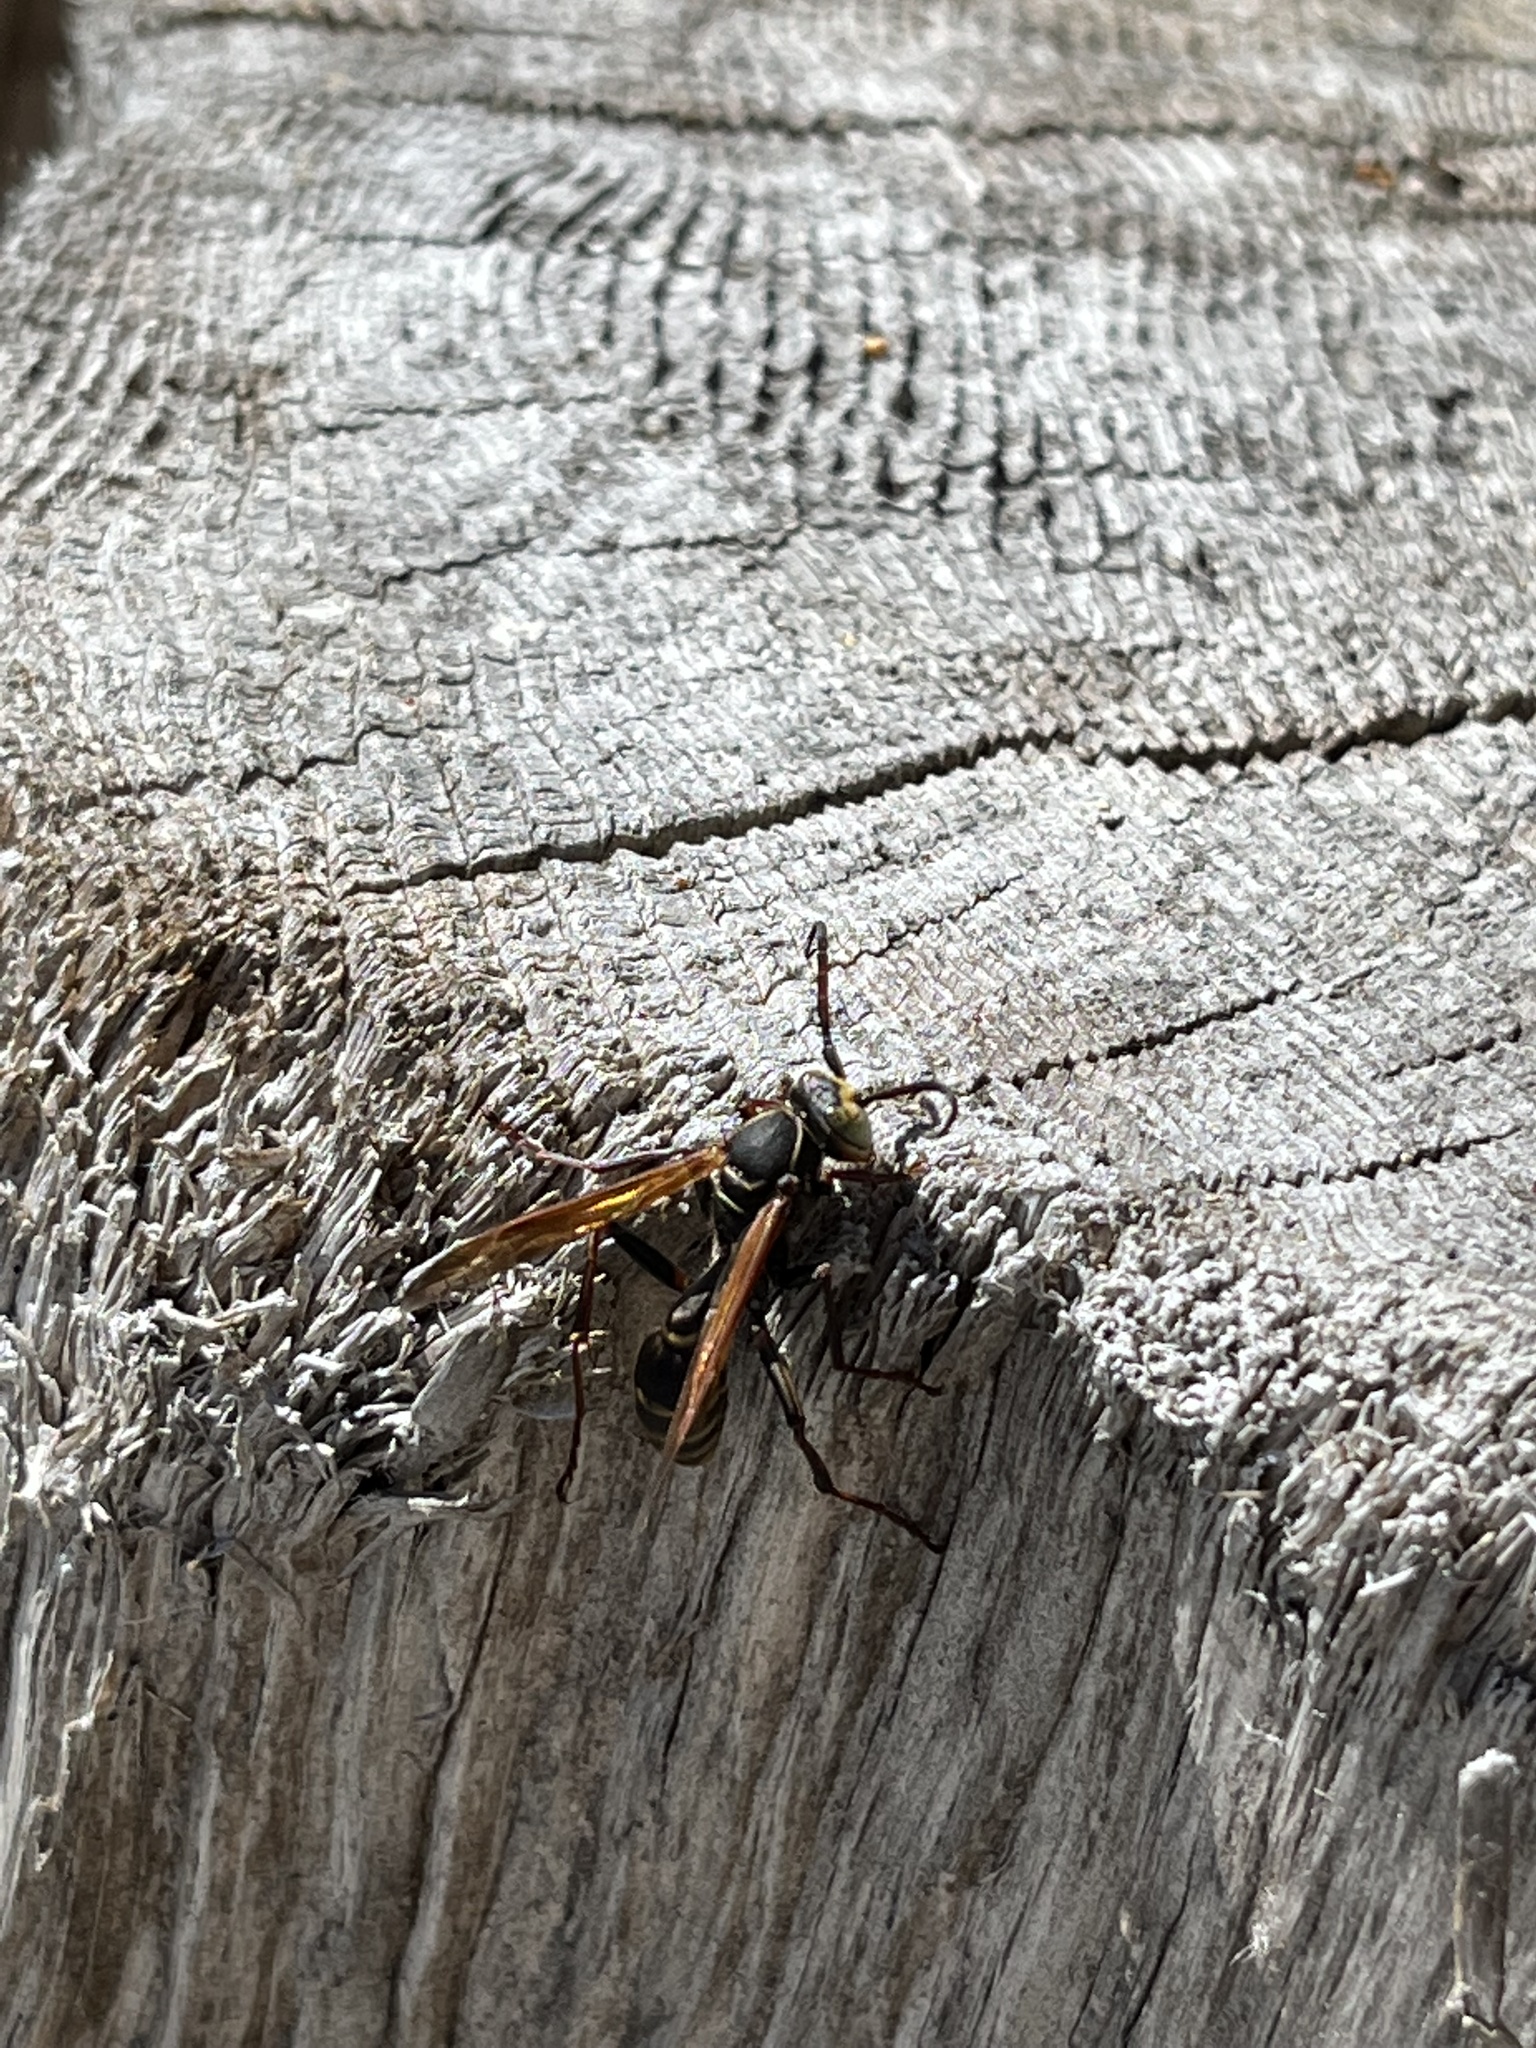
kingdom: Animalia
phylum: Arthropoda
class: Insecta
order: Hymenoptera
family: Vespidae
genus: Mischocyttarus
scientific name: Mischocyttarus flavitarsis
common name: Wasp
